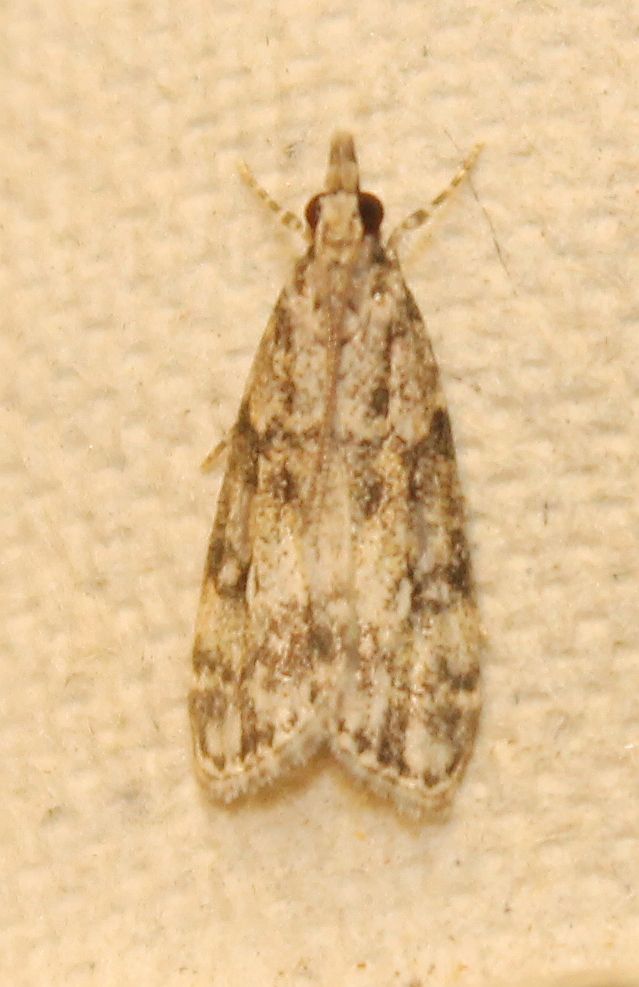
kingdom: Animalia
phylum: Arthropoda
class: Insecta
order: Lepidoptera
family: Crambidae
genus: Eudonia
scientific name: Eudonia lacustrata
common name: Little grey
